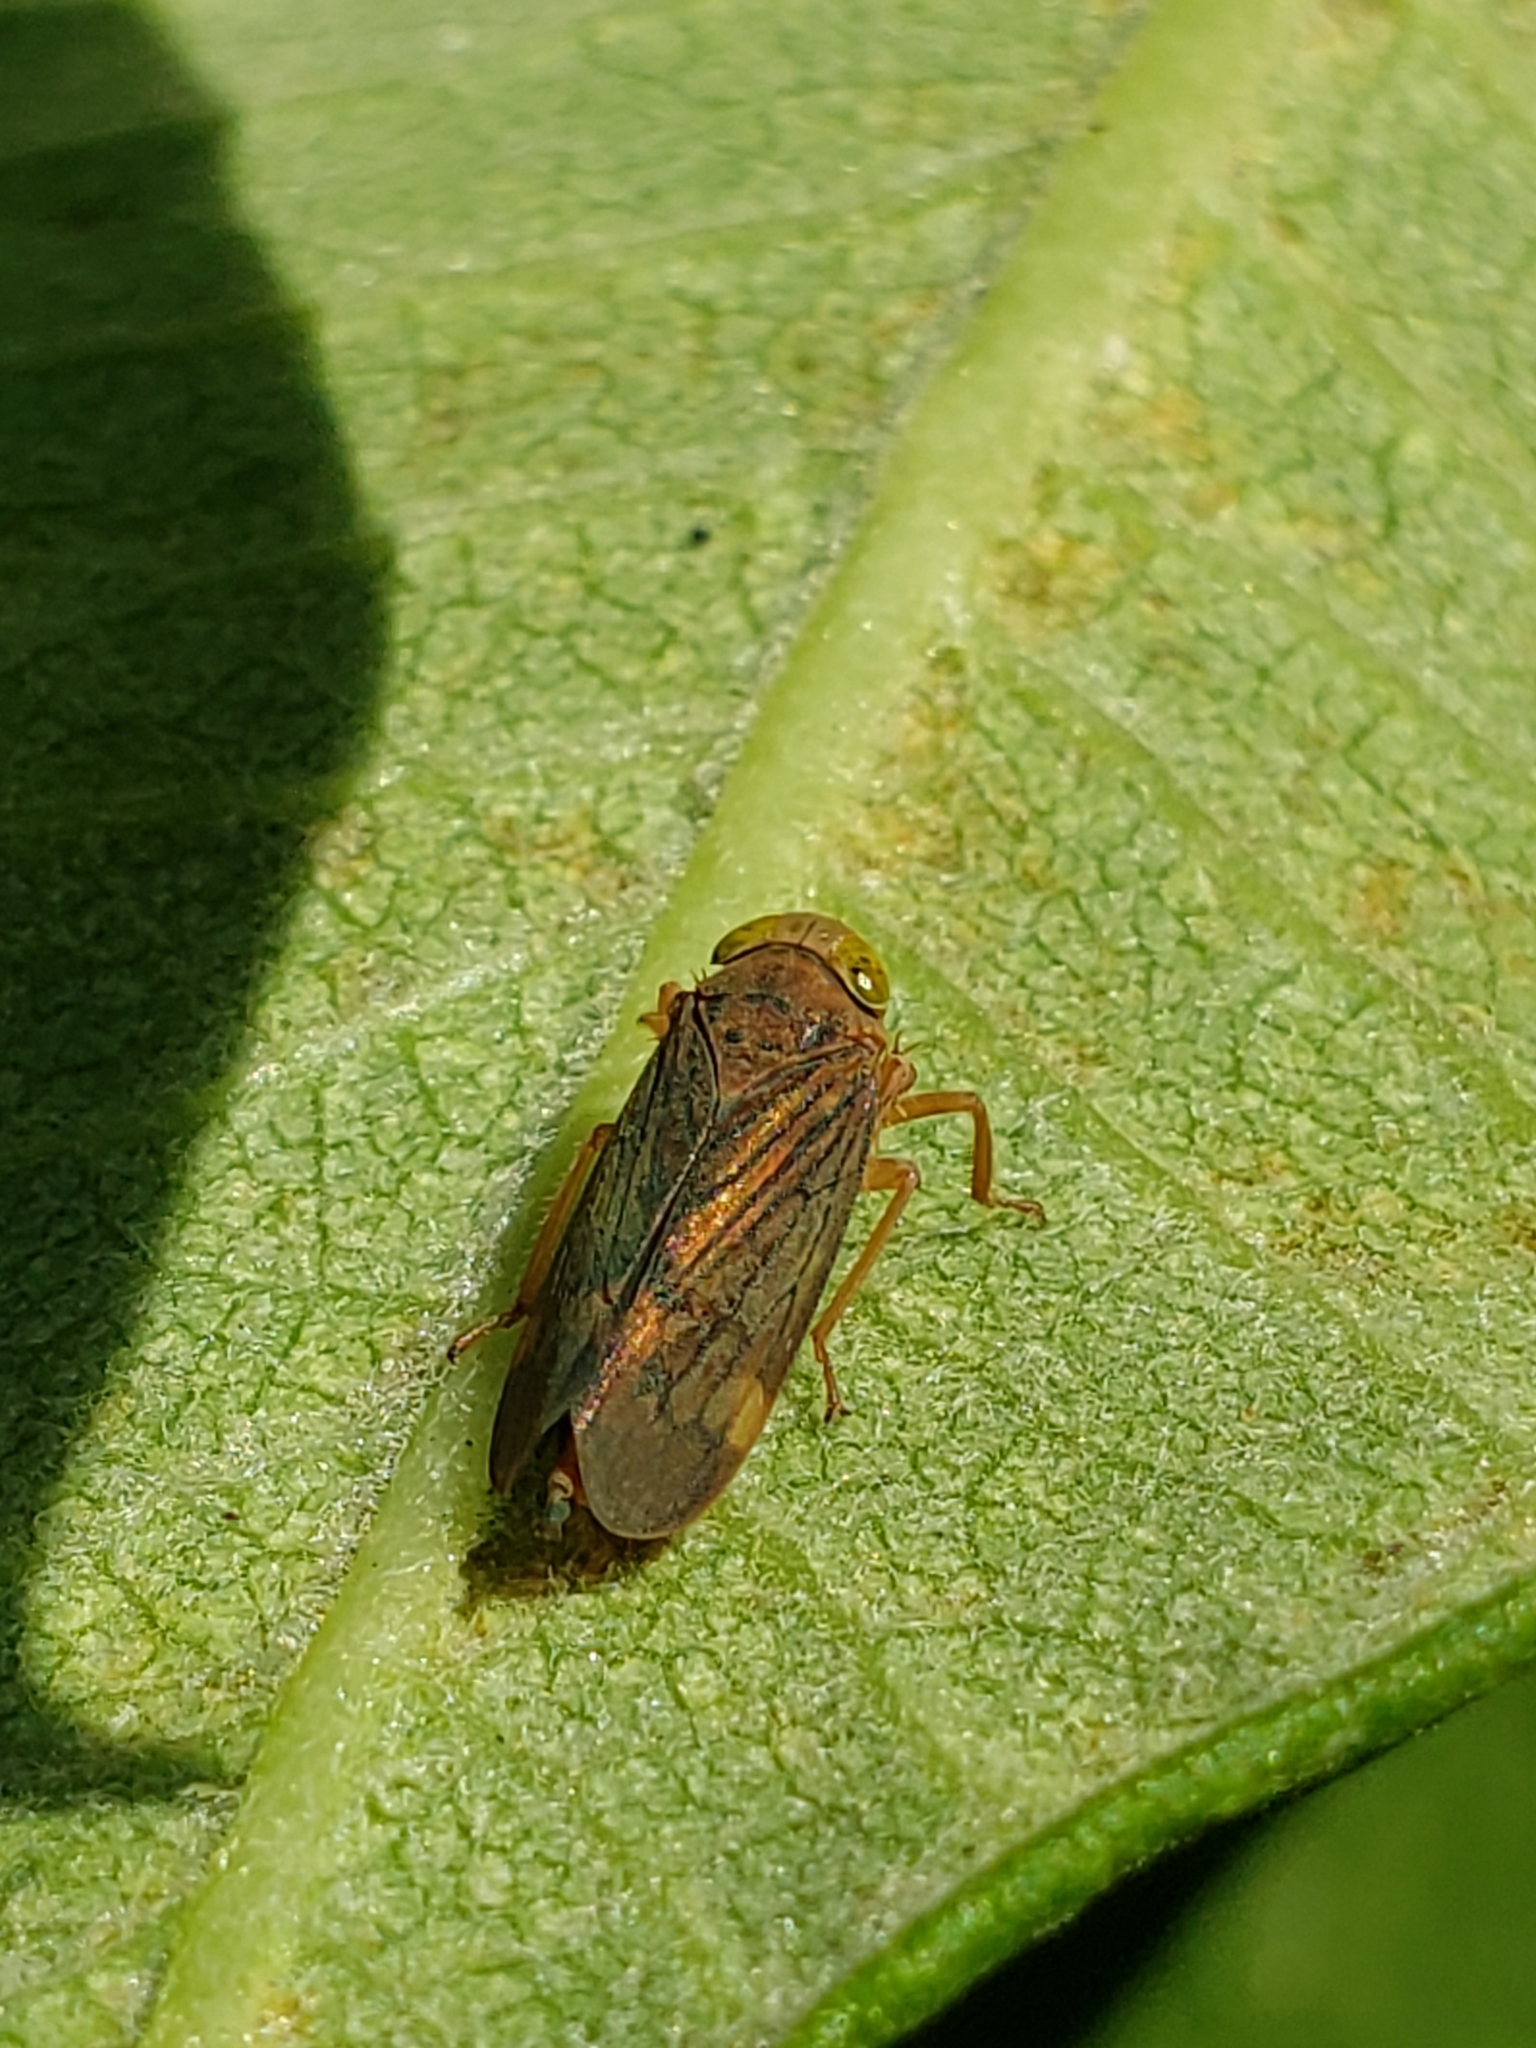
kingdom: Animalia
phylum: Arthropoda
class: Insecta
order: Hemiptera
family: Cicadellidae
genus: Jikradia
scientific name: Jikradia olitoria
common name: Coppery leafhopper
